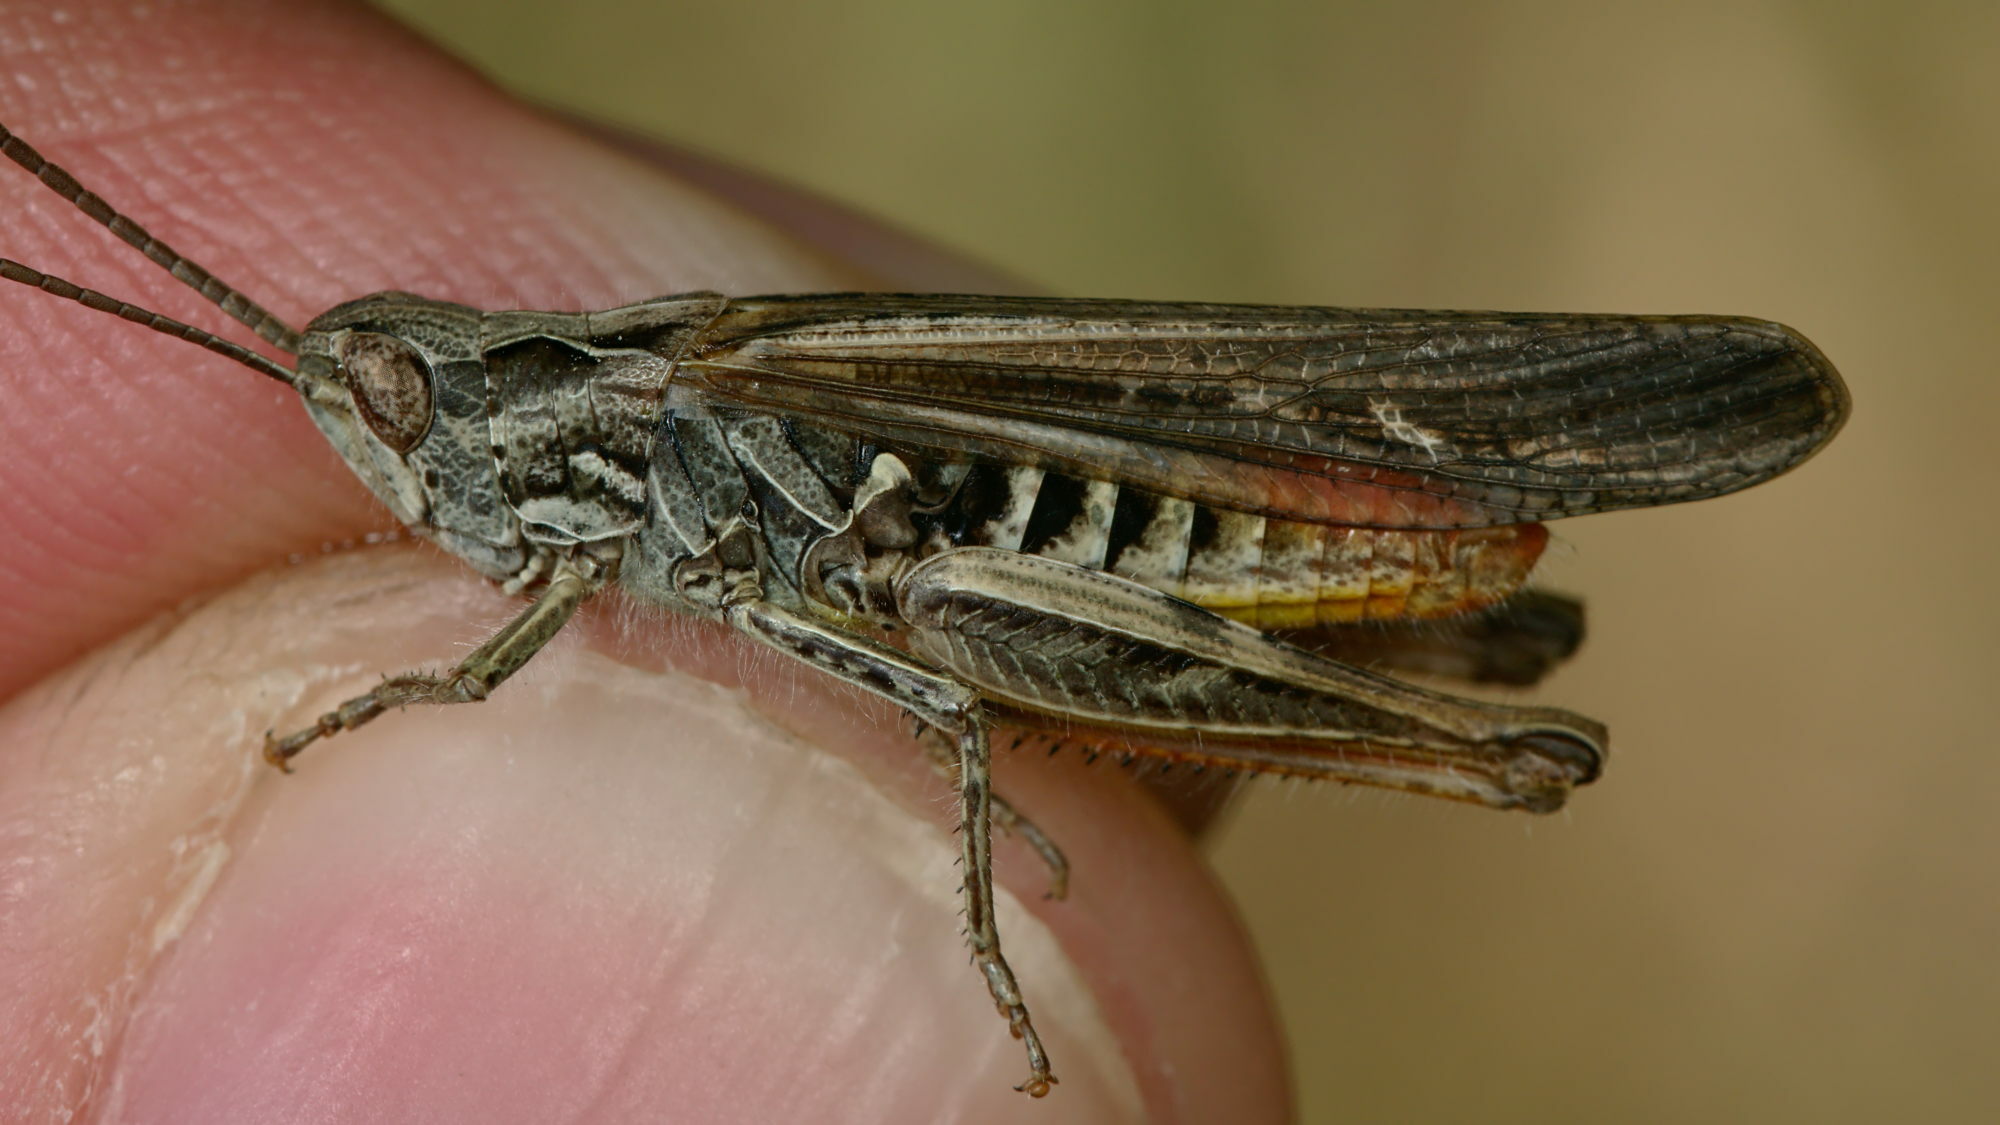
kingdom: Animalia
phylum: Arthropoda
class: Insecta
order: Orthoptera
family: Acrididae
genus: Chorthippus
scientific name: Chorthippus brunneus
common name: Field grasshopper
